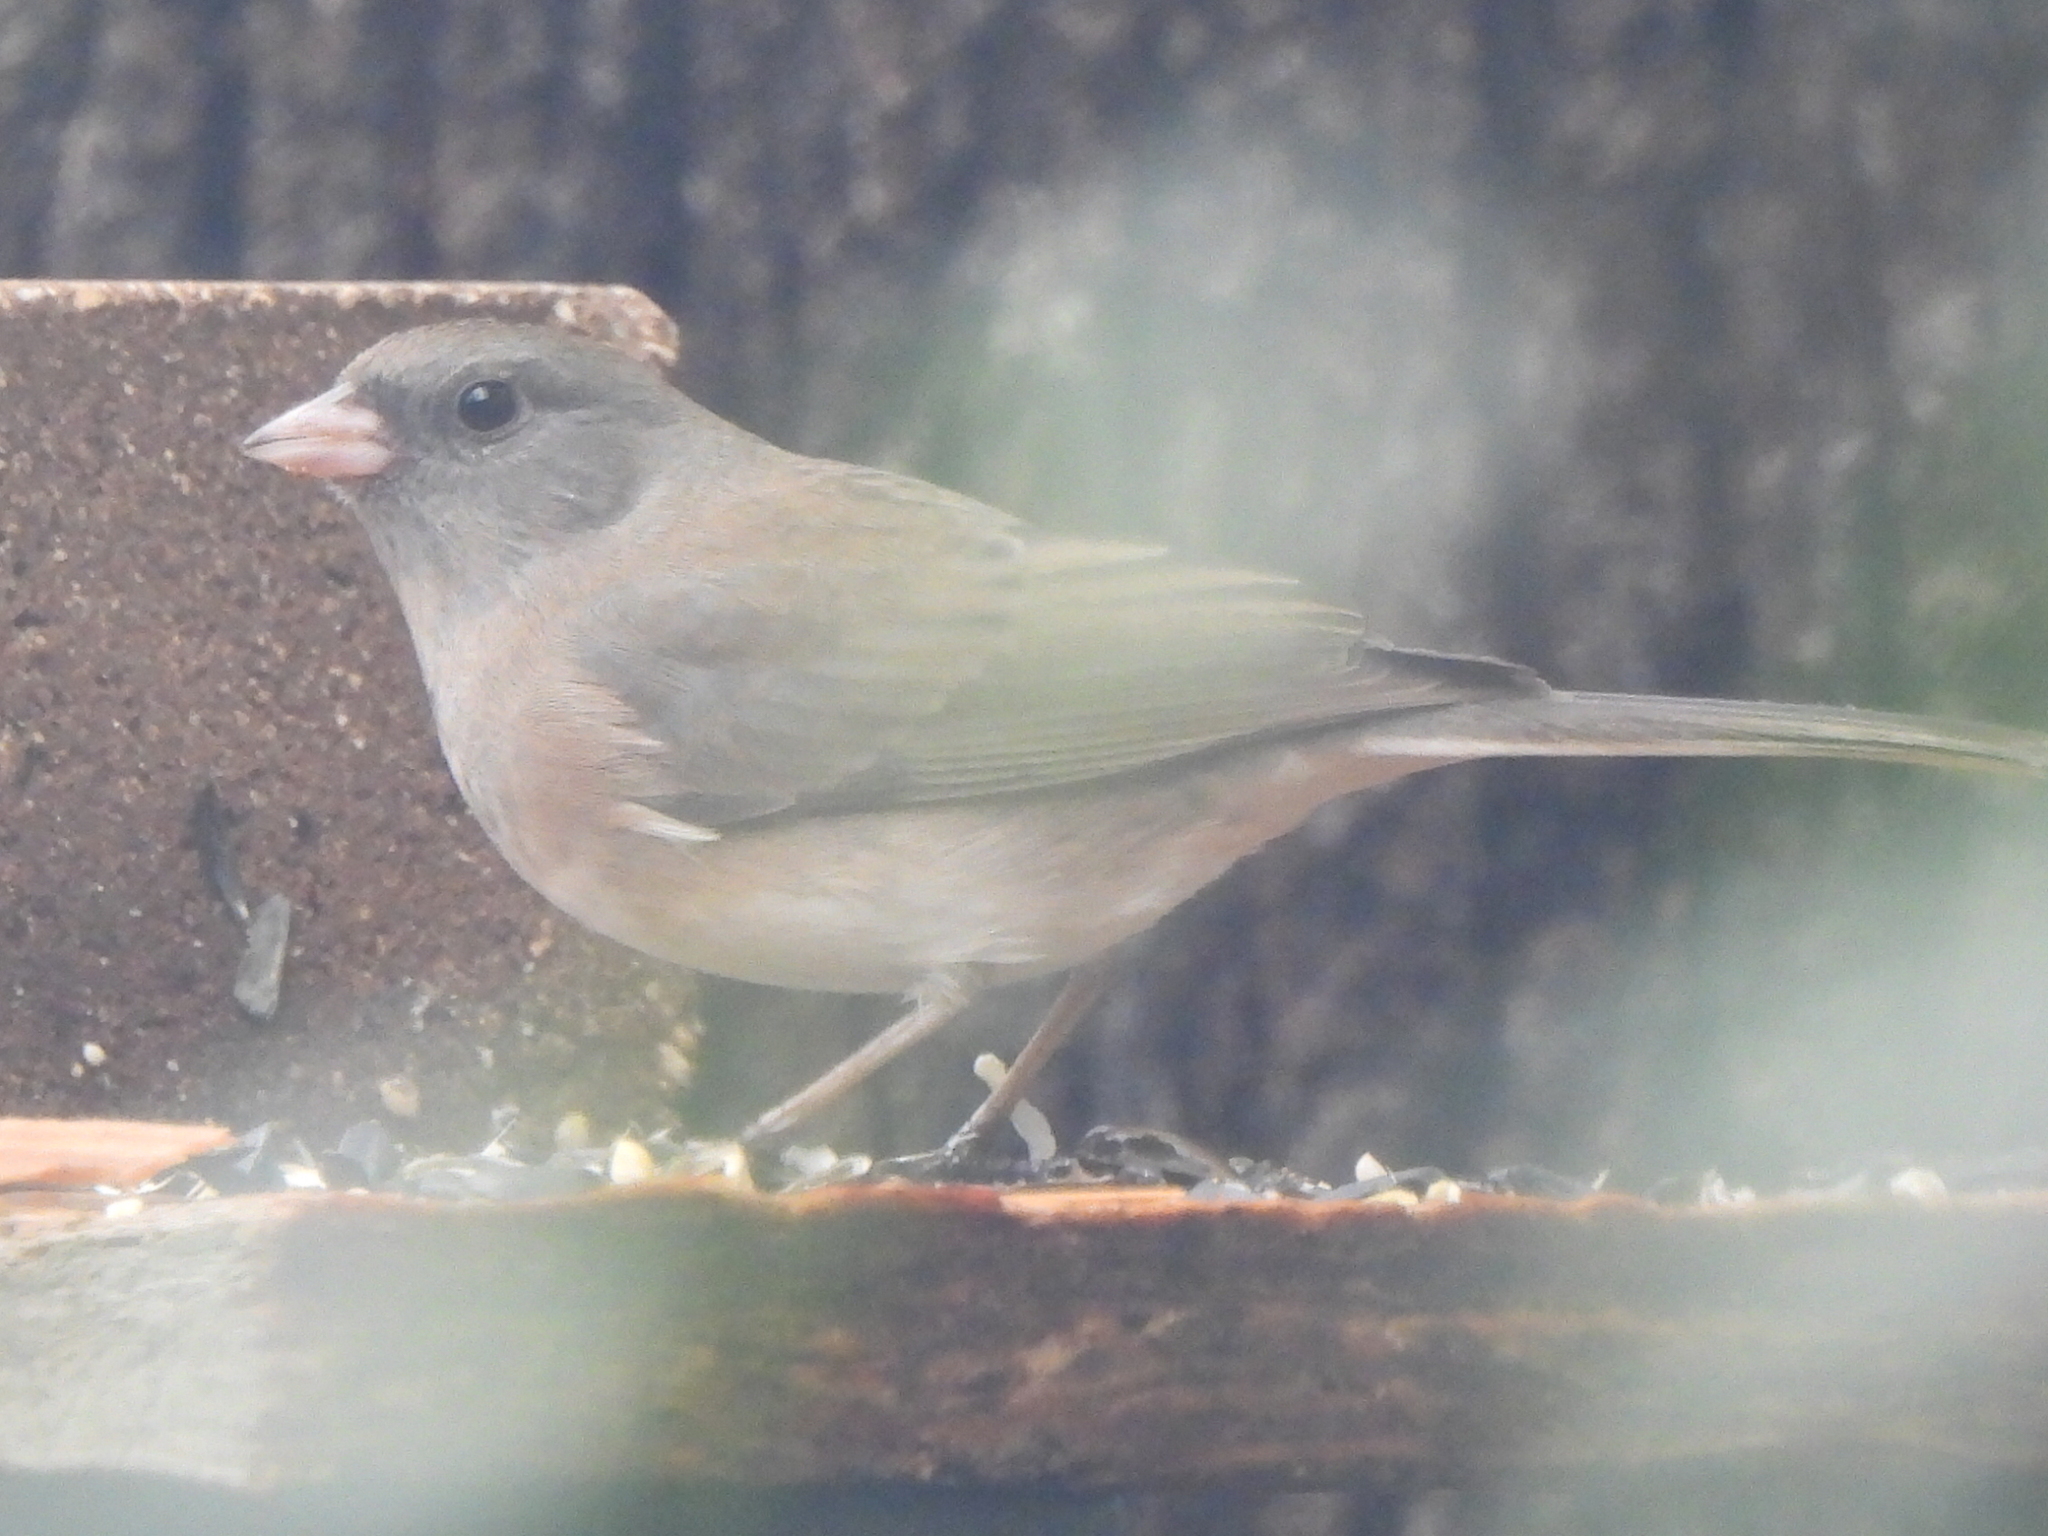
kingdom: Animalia
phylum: Chordata
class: Aves
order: Passeriformes
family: Passerellidae
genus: Junco
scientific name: Junco hyemalis
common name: Dark-eyed junco
